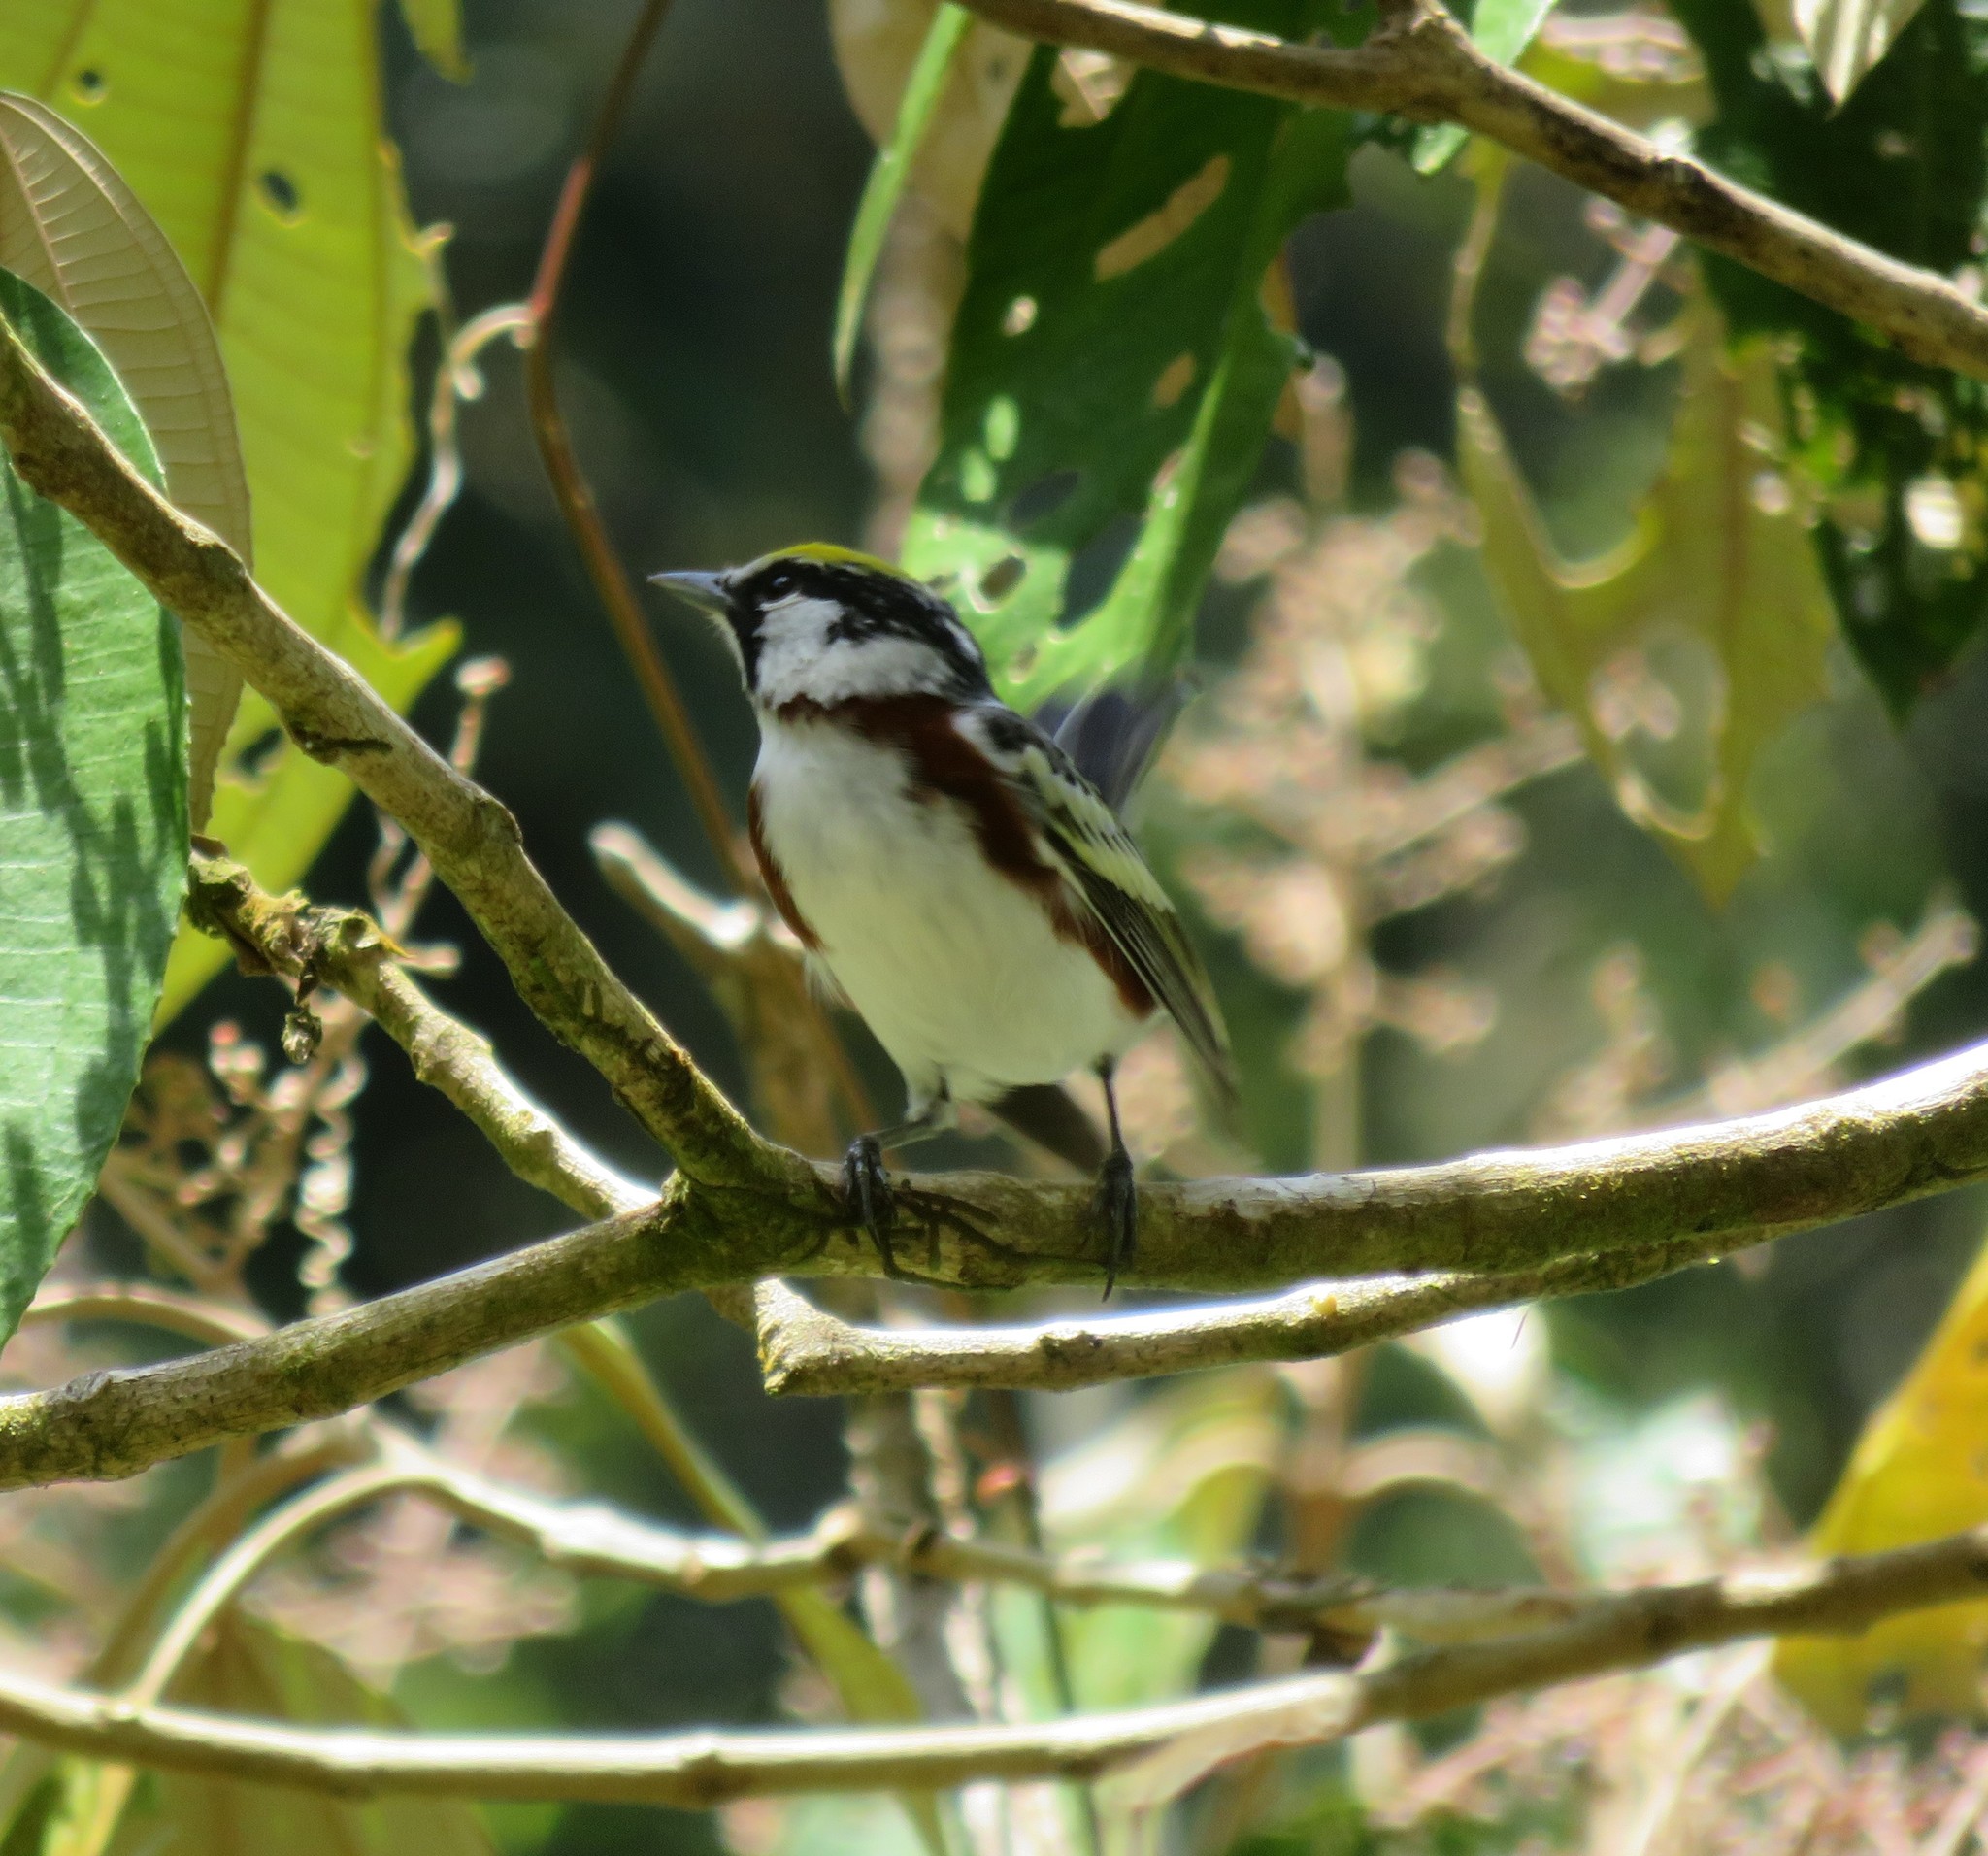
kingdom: Animalia
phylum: Chordata
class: Aves
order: Passeriformes
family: Parulidae
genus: Setophaga
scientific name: Setophaga pensylvanica
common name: Chestnut-sided warbler
